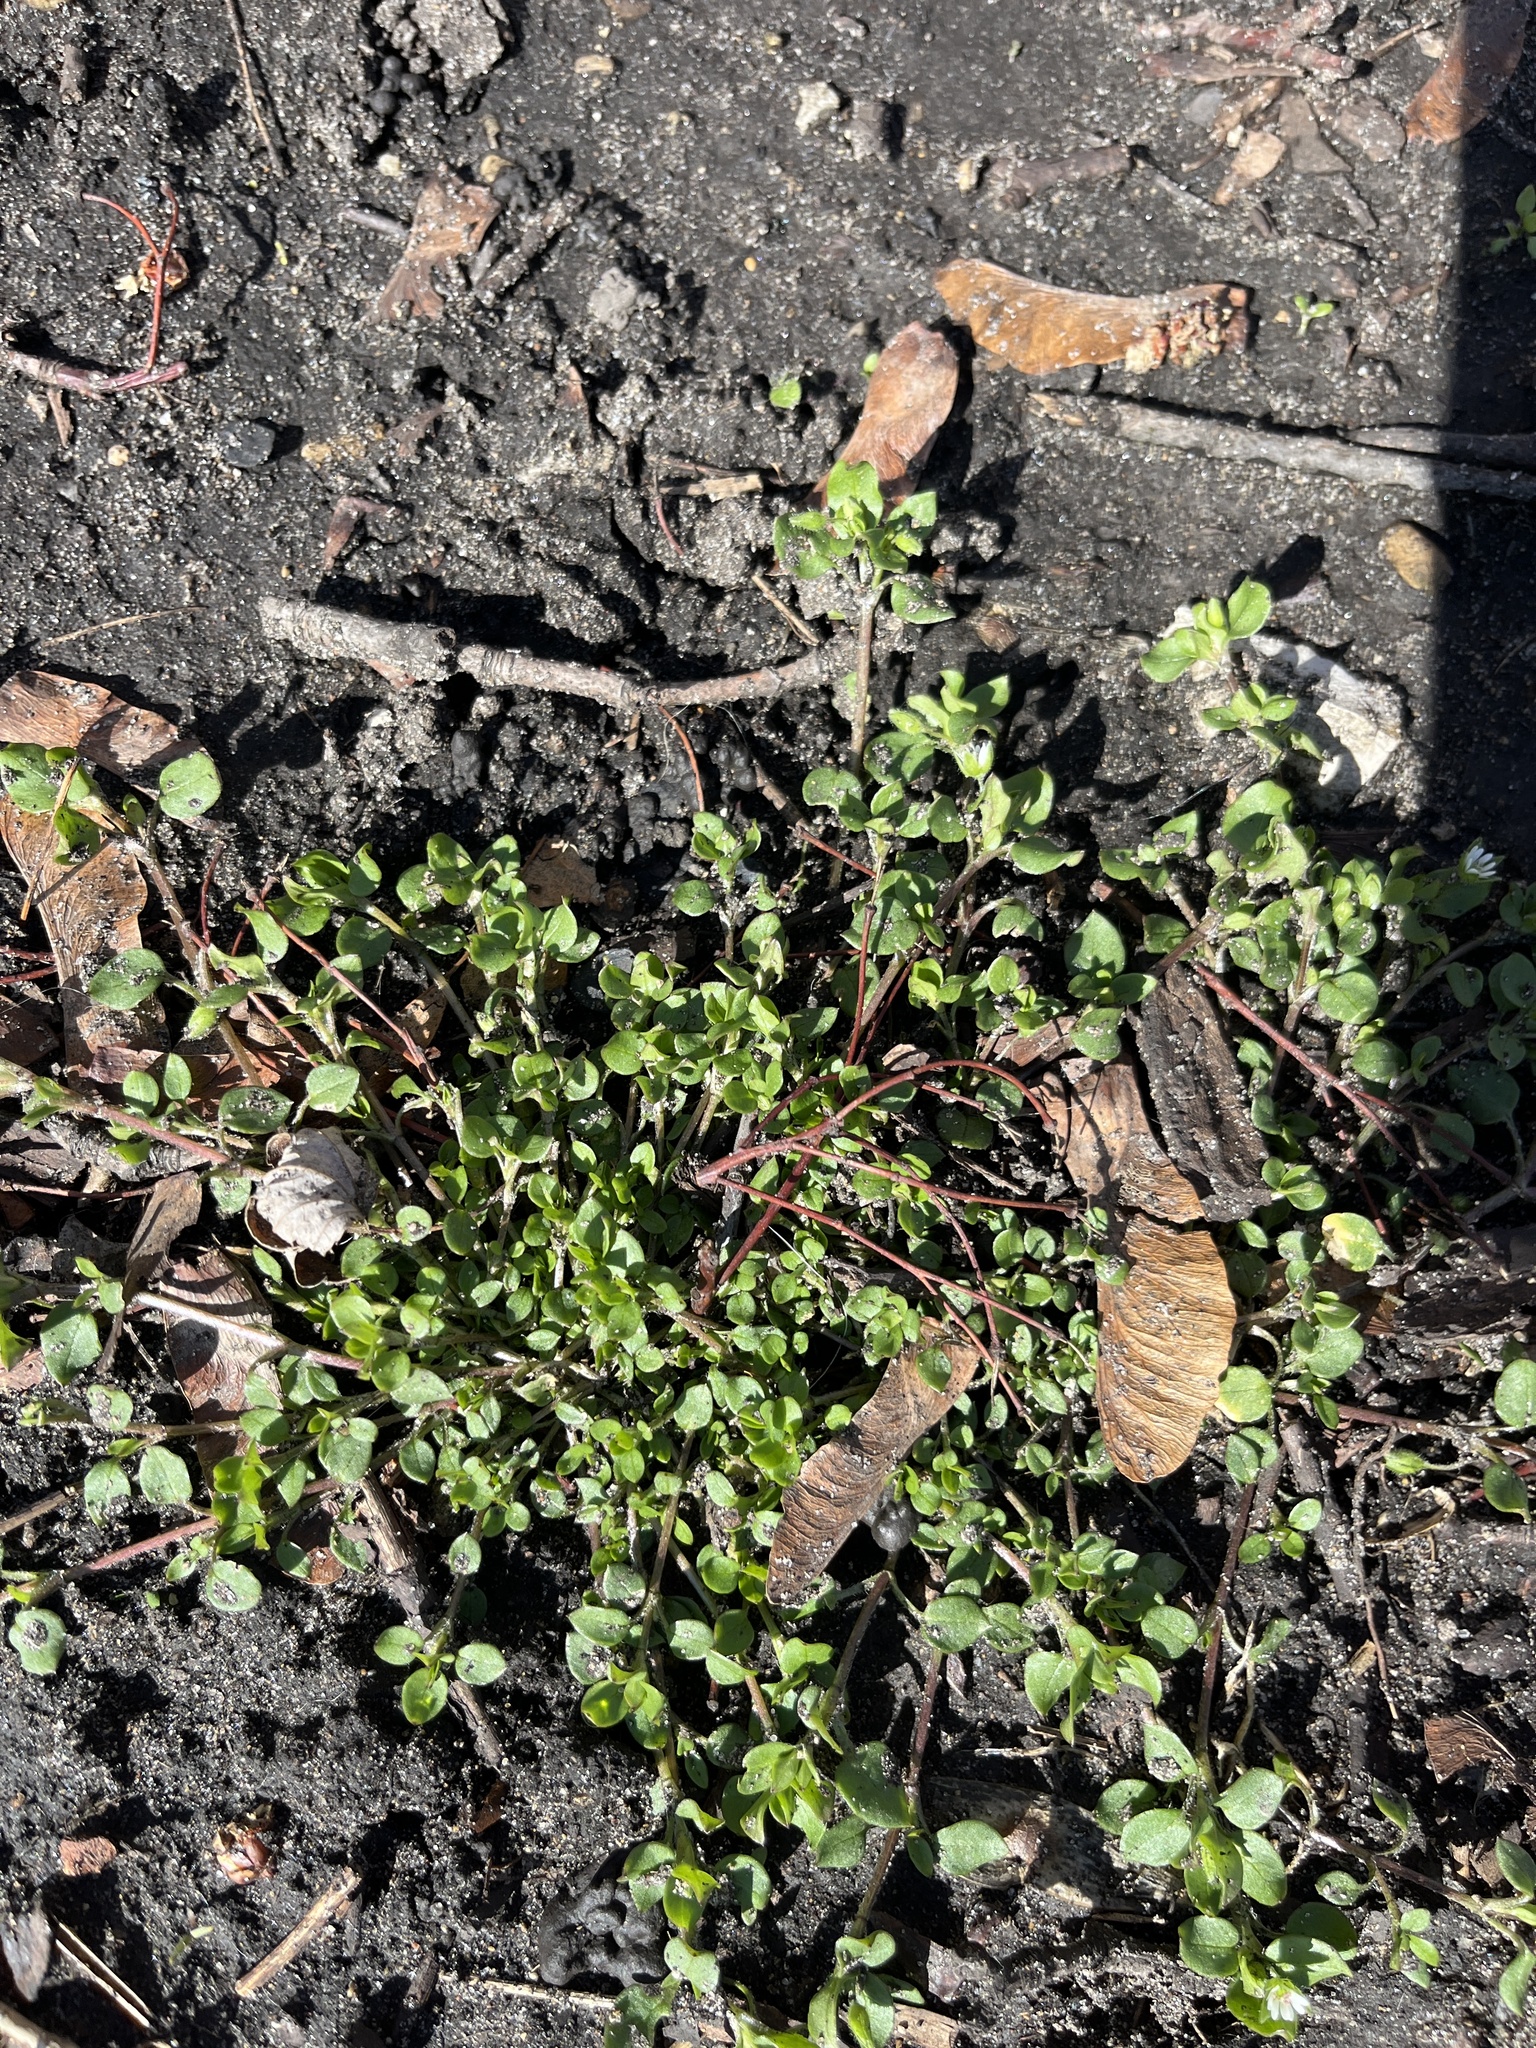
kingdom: Plantae
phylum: Tracheophyta
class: Magnoliopsida
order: Caryophyllales
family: Caryophyllaceae
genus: Stellaria
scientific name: Stellaria media
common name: Common chickweed
